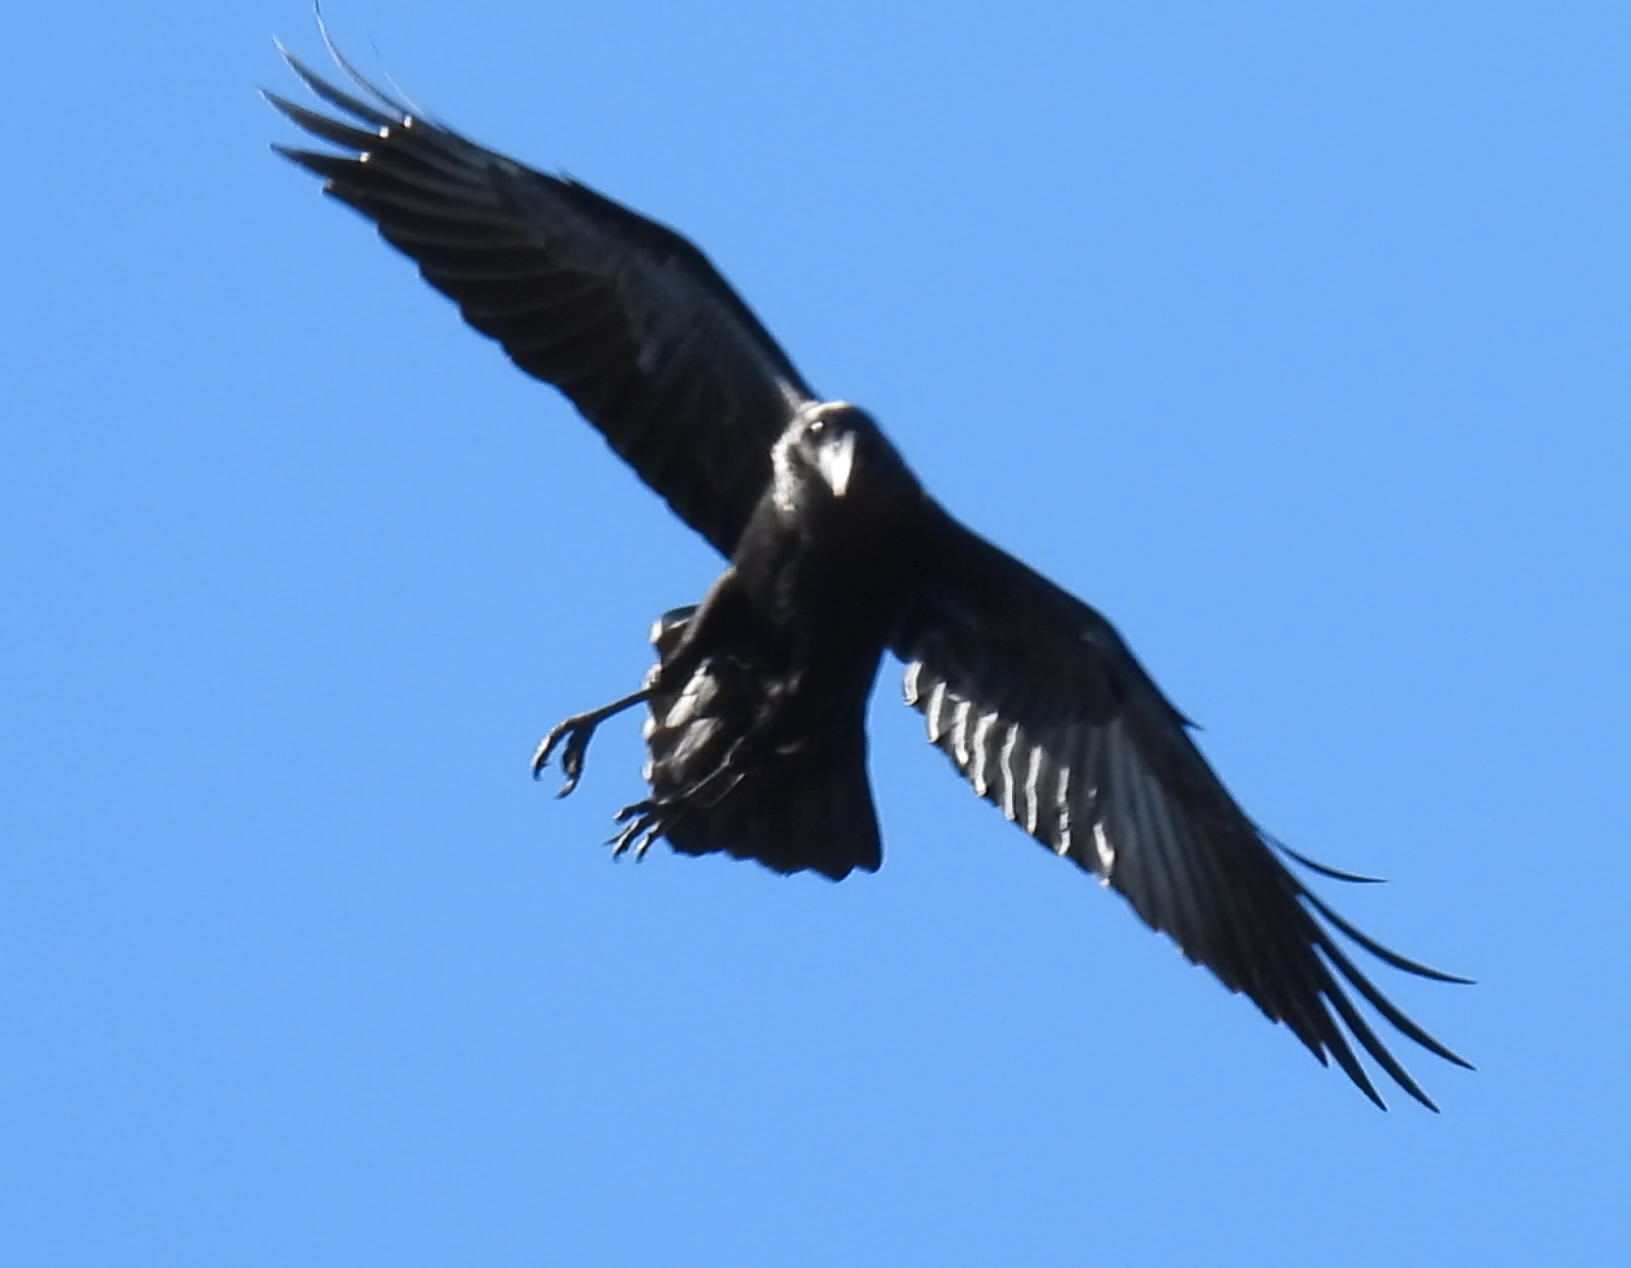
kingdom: Animalia
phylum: Chordata
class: Aves
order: Passeriformes
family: Corvidae
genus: Corvus
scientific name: Corvus albicollis
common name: White-necked raven
